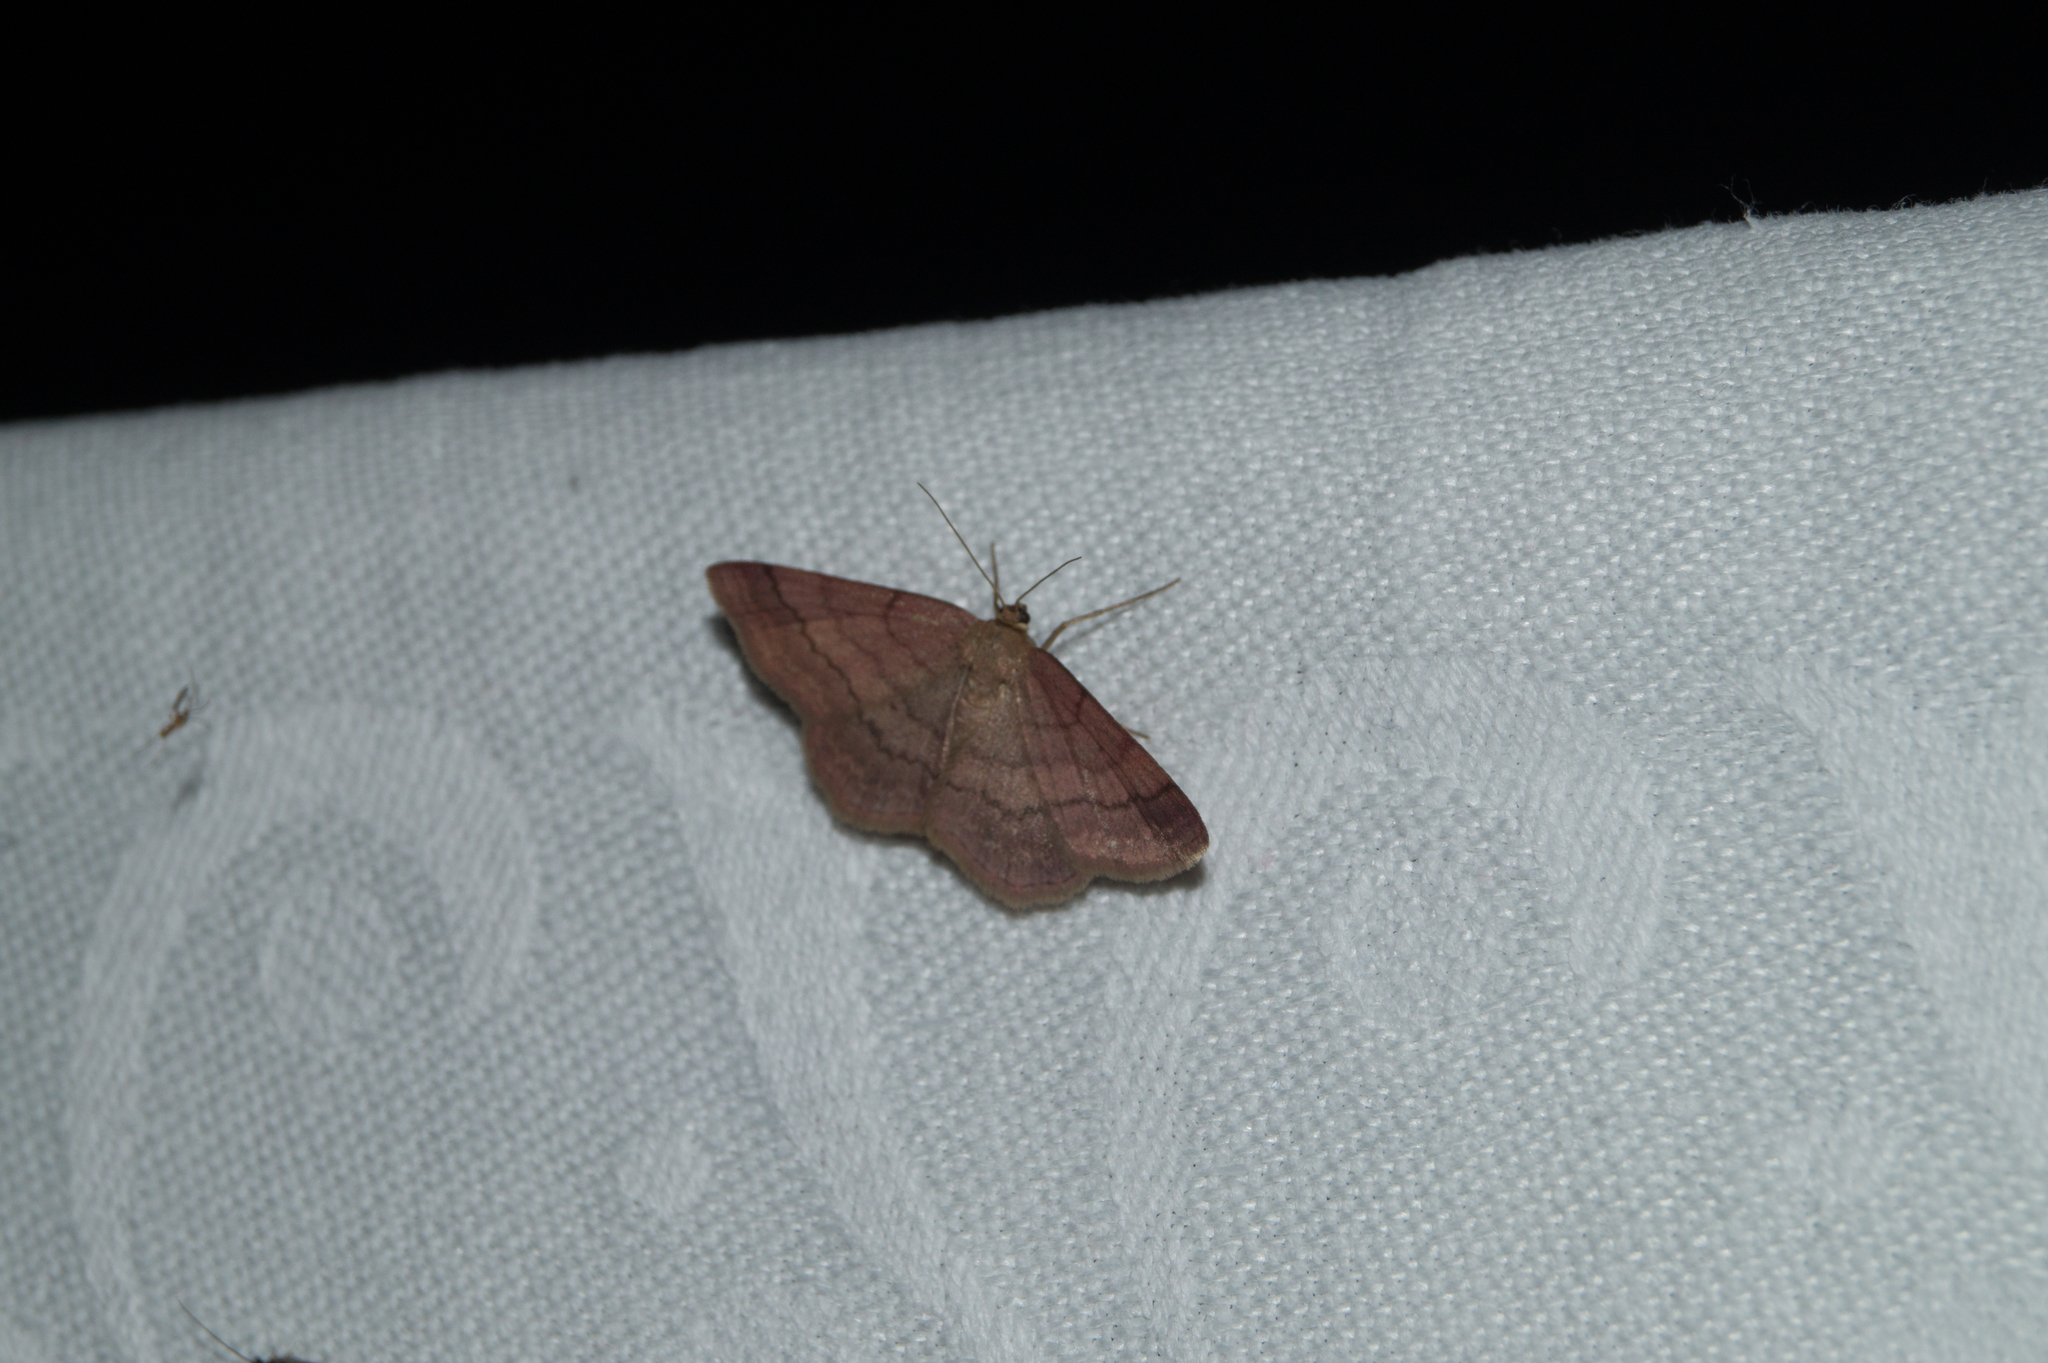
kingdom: Animalia
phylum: Arthropoda
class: Insecta
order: Lepidoptera
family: Geometridae
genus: Scopula
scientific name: Scopula rubiginata
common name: Tawny wave
